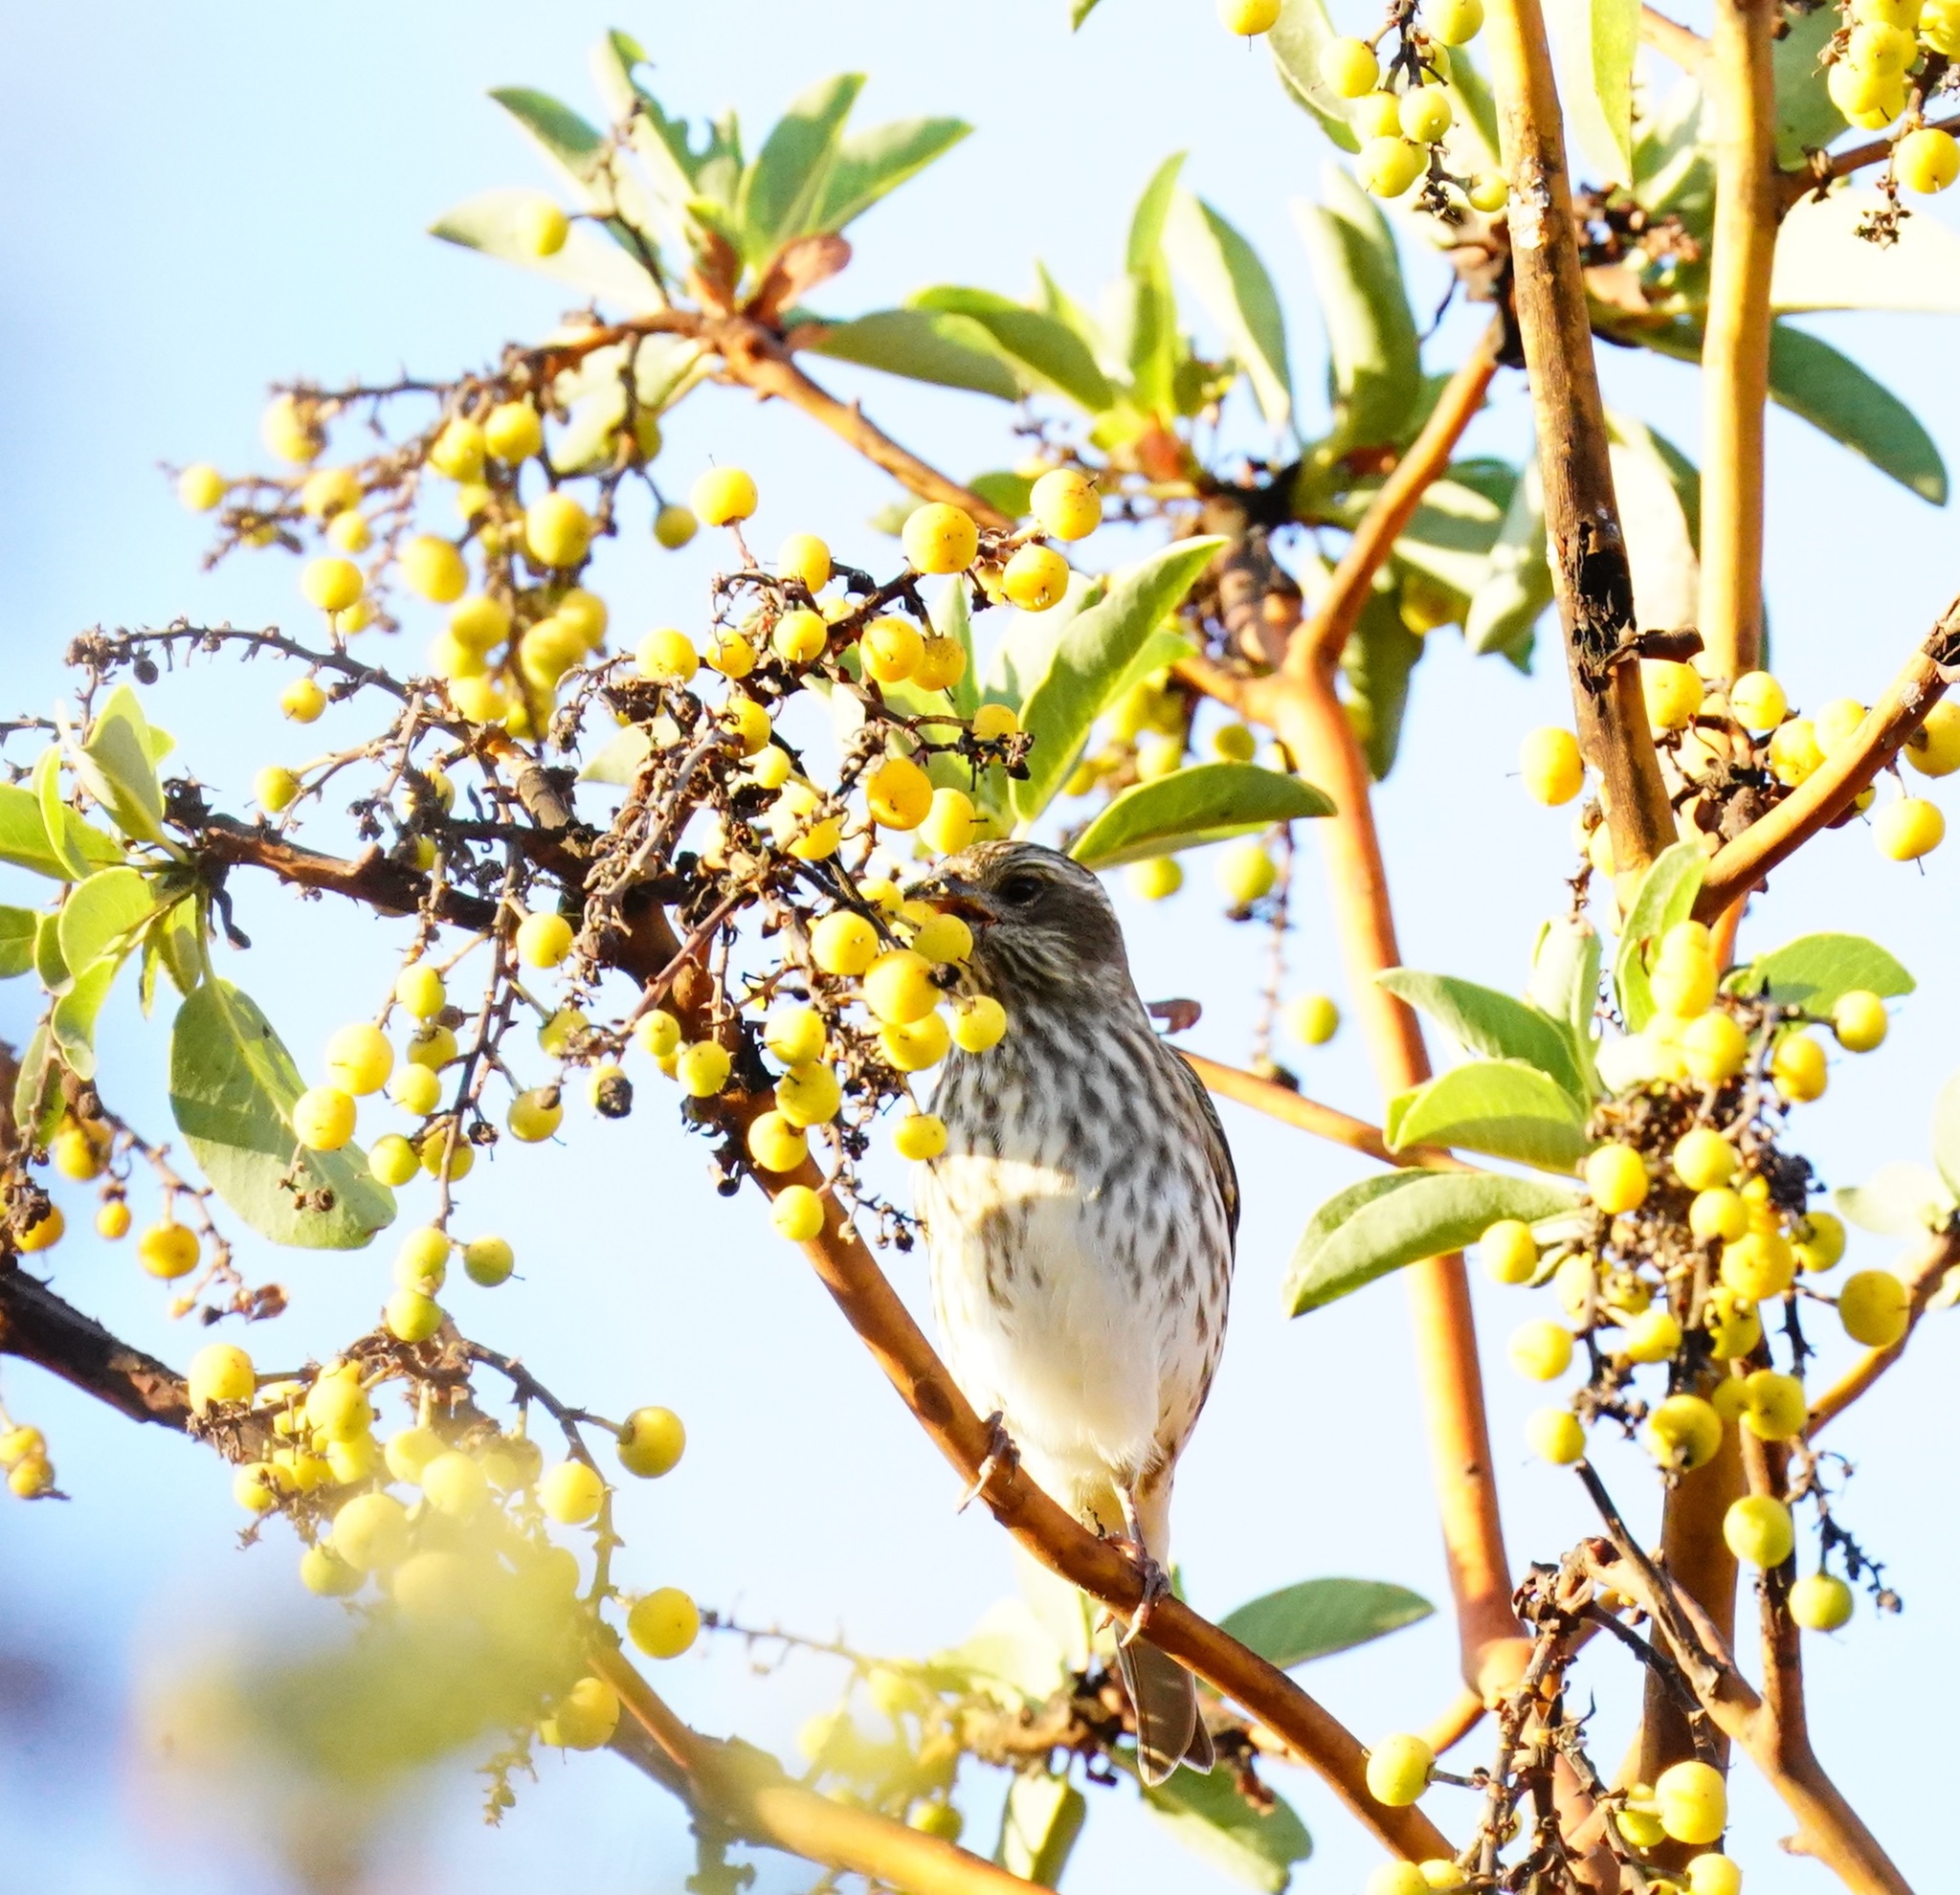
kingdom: Animalia
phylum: Chordata
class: Aves
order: Passeriformes
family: Fringillidae
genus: Haemorhous
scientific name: Haemorhous purpureus
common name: Purple finch
